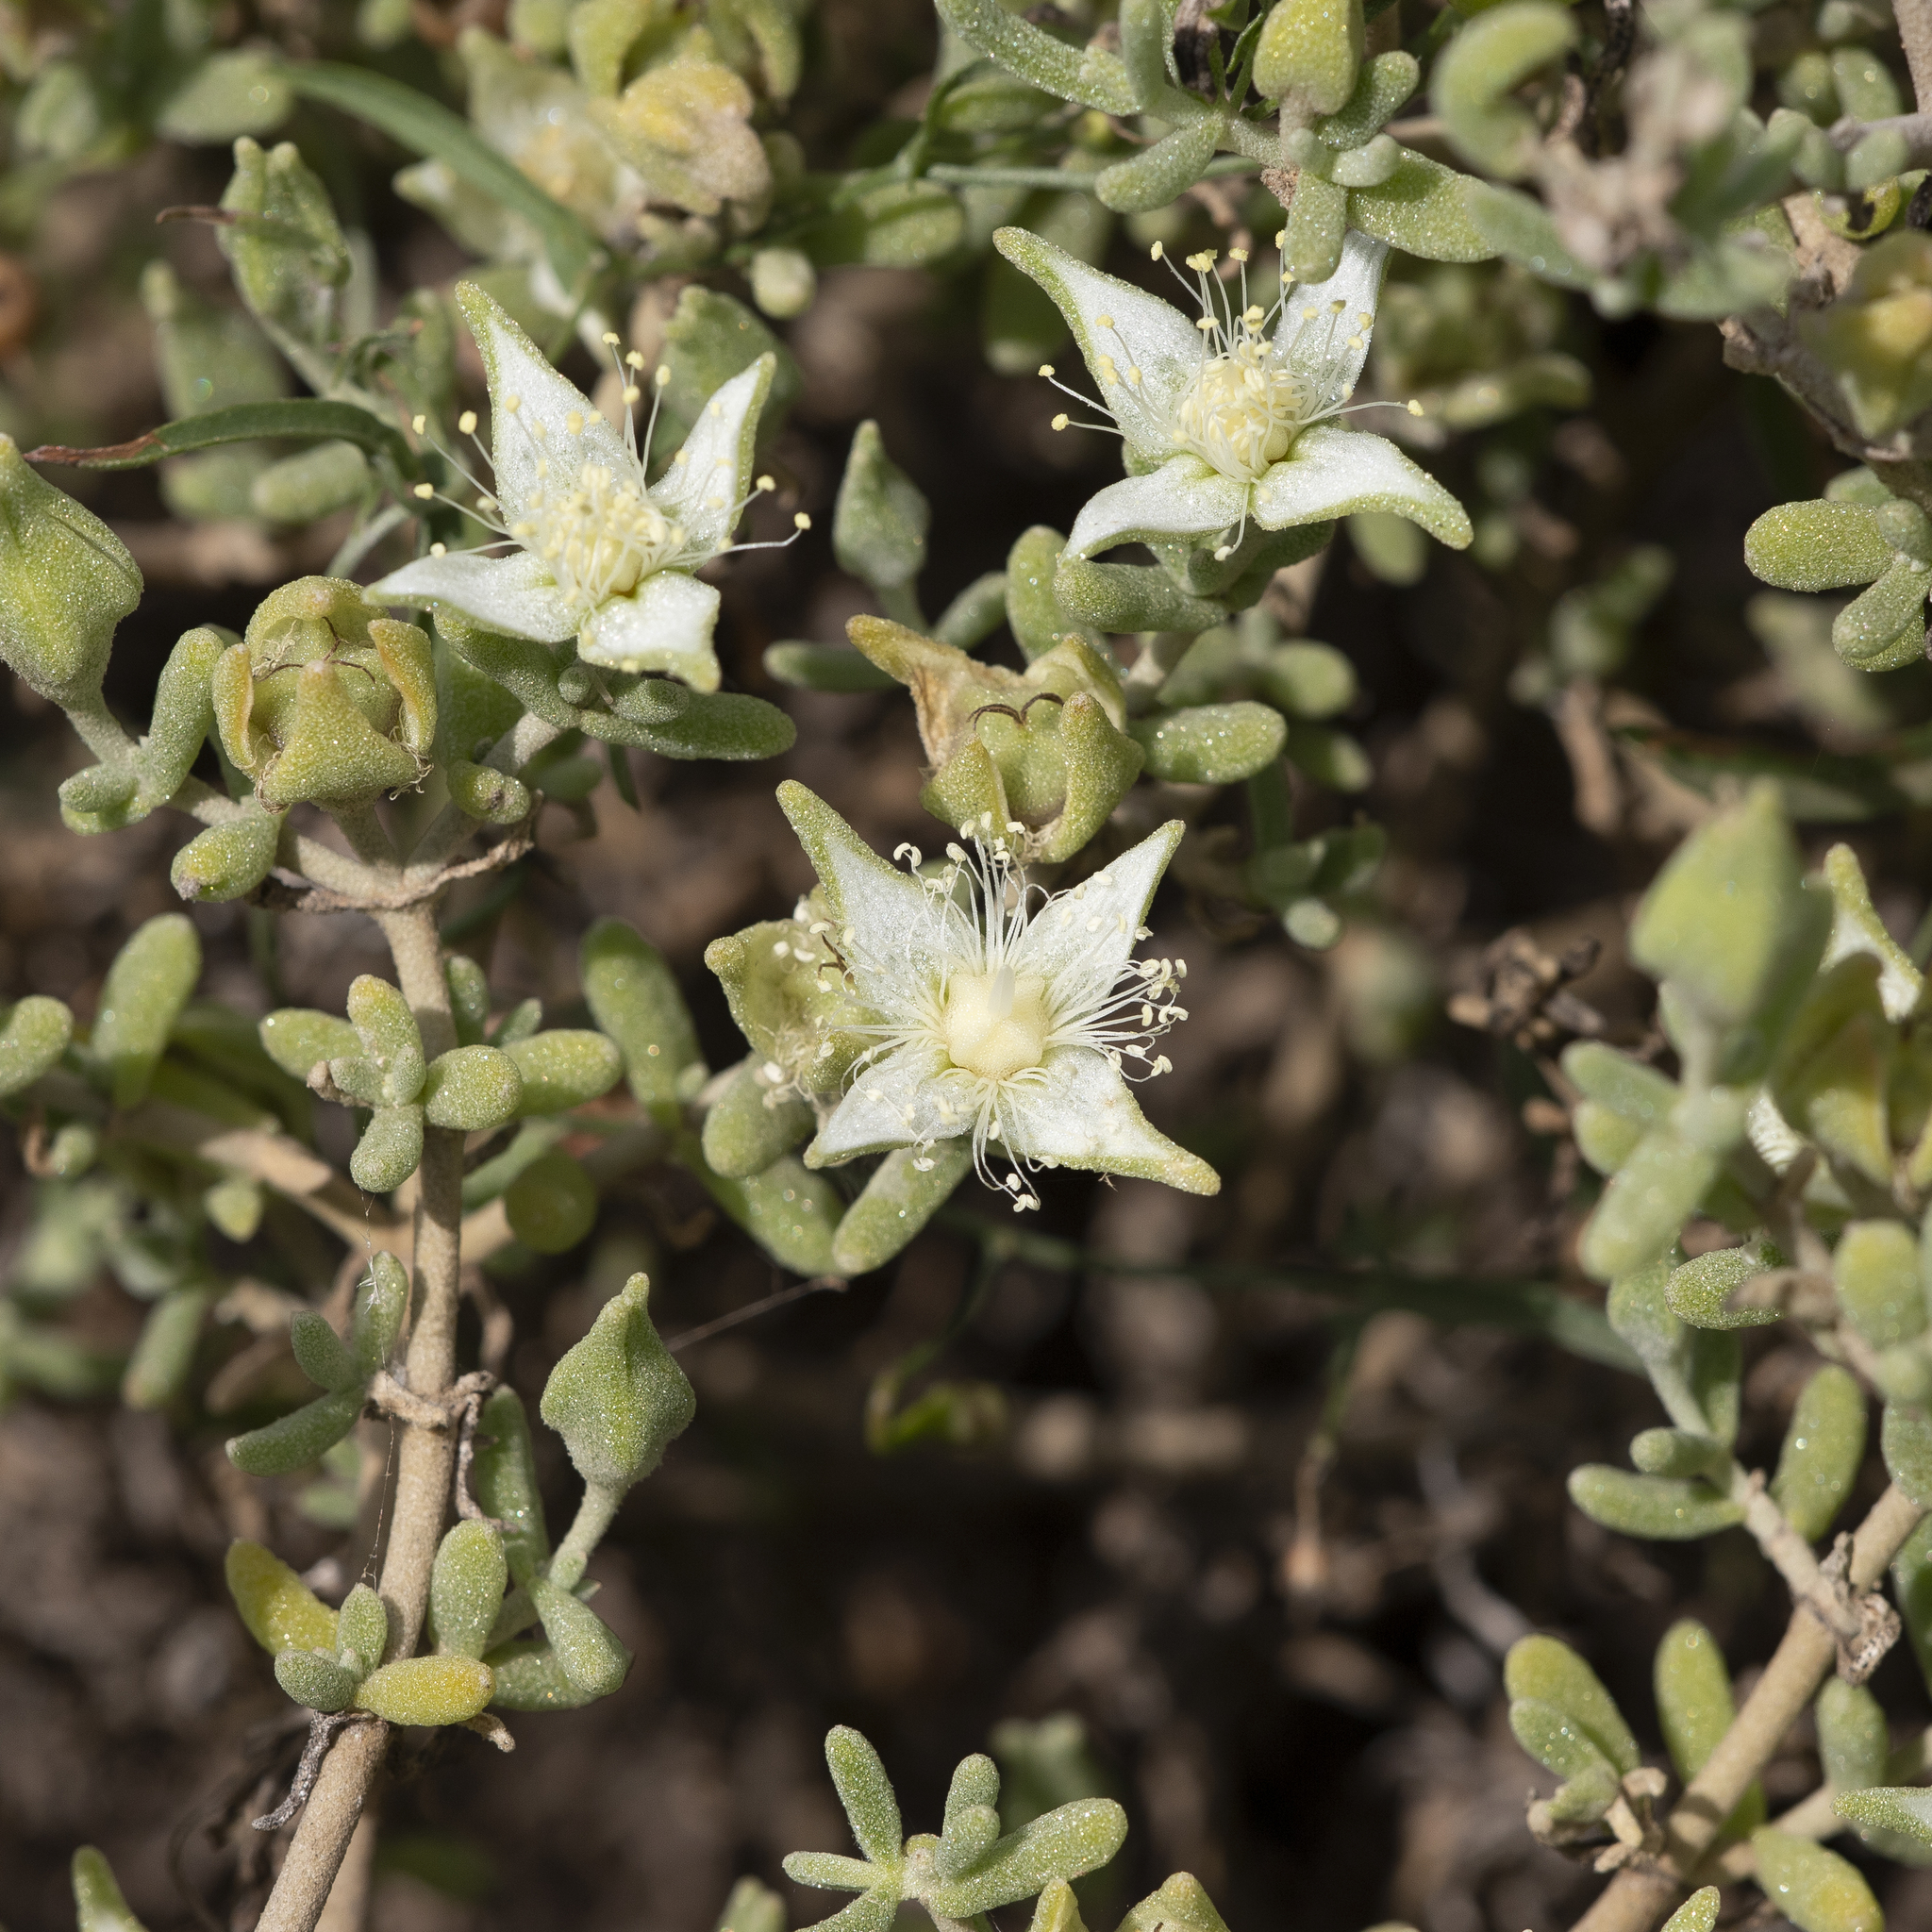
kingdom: Plantae
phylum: Tracheophyta
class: Magnoliopsida
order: Caryophyllales
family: Aizoaceae
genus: Gunniopsis
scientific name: Gunniopsis quadrifida
